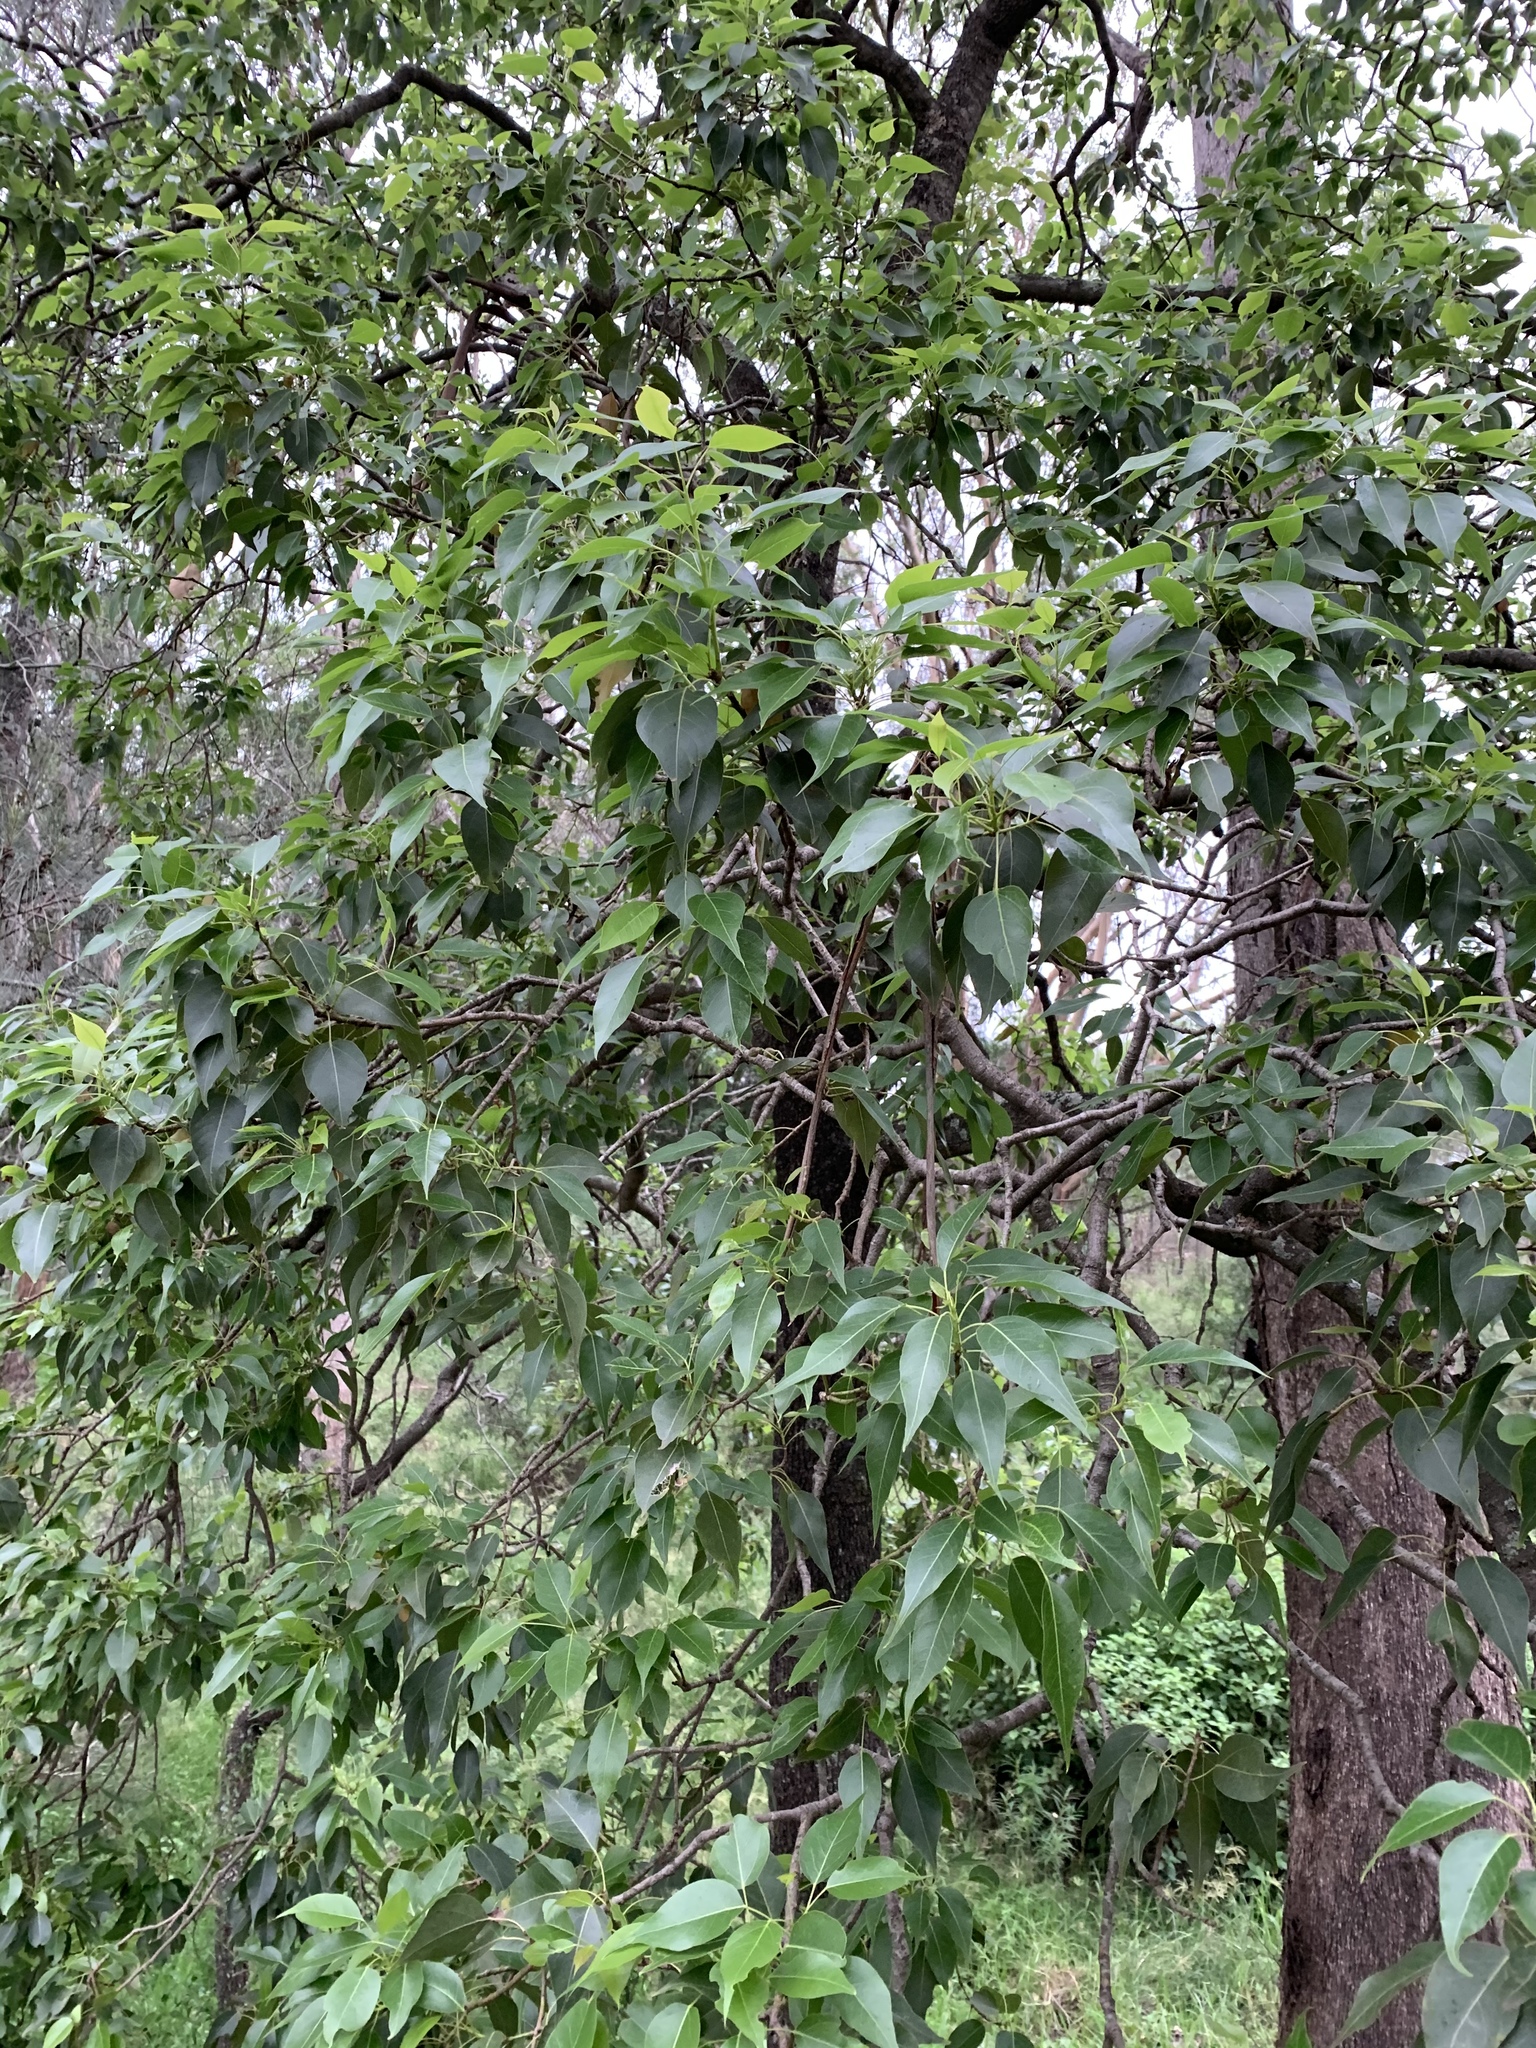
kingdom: Plantae
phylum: Tracheophyta
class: Magnoliopsida
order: Malvales
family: Malvaceae
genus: Brachychiton
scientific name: Brachychiton populneus
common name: Kurrajong
